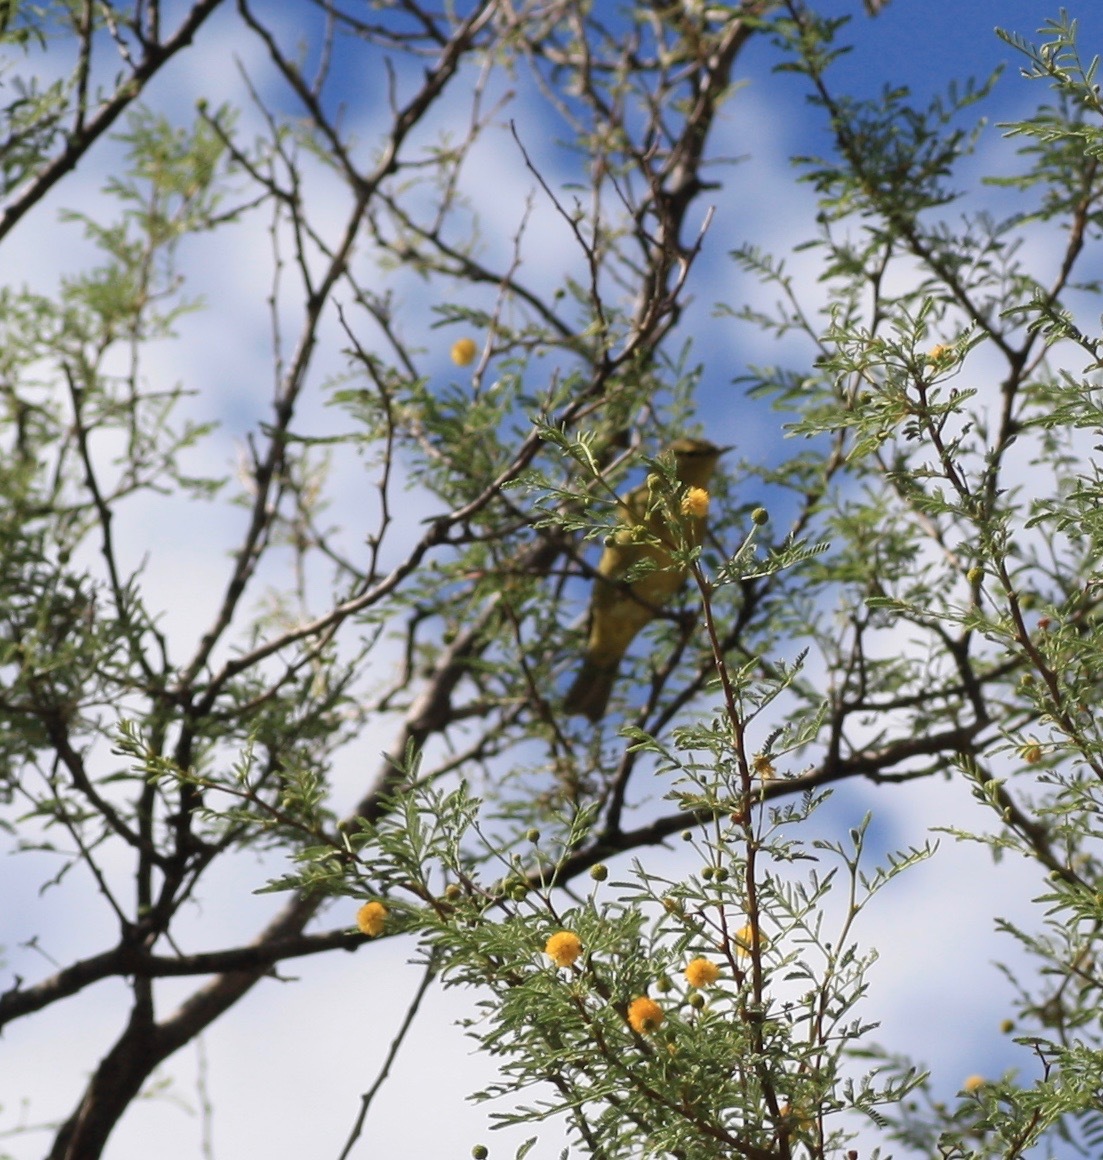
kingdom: Animalia
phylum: Chordata
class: Aves
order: Passeriformes
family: Parulidae
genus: Leiothlypis
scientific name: Leiothlypis celata
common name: Orange-crowned warbler
